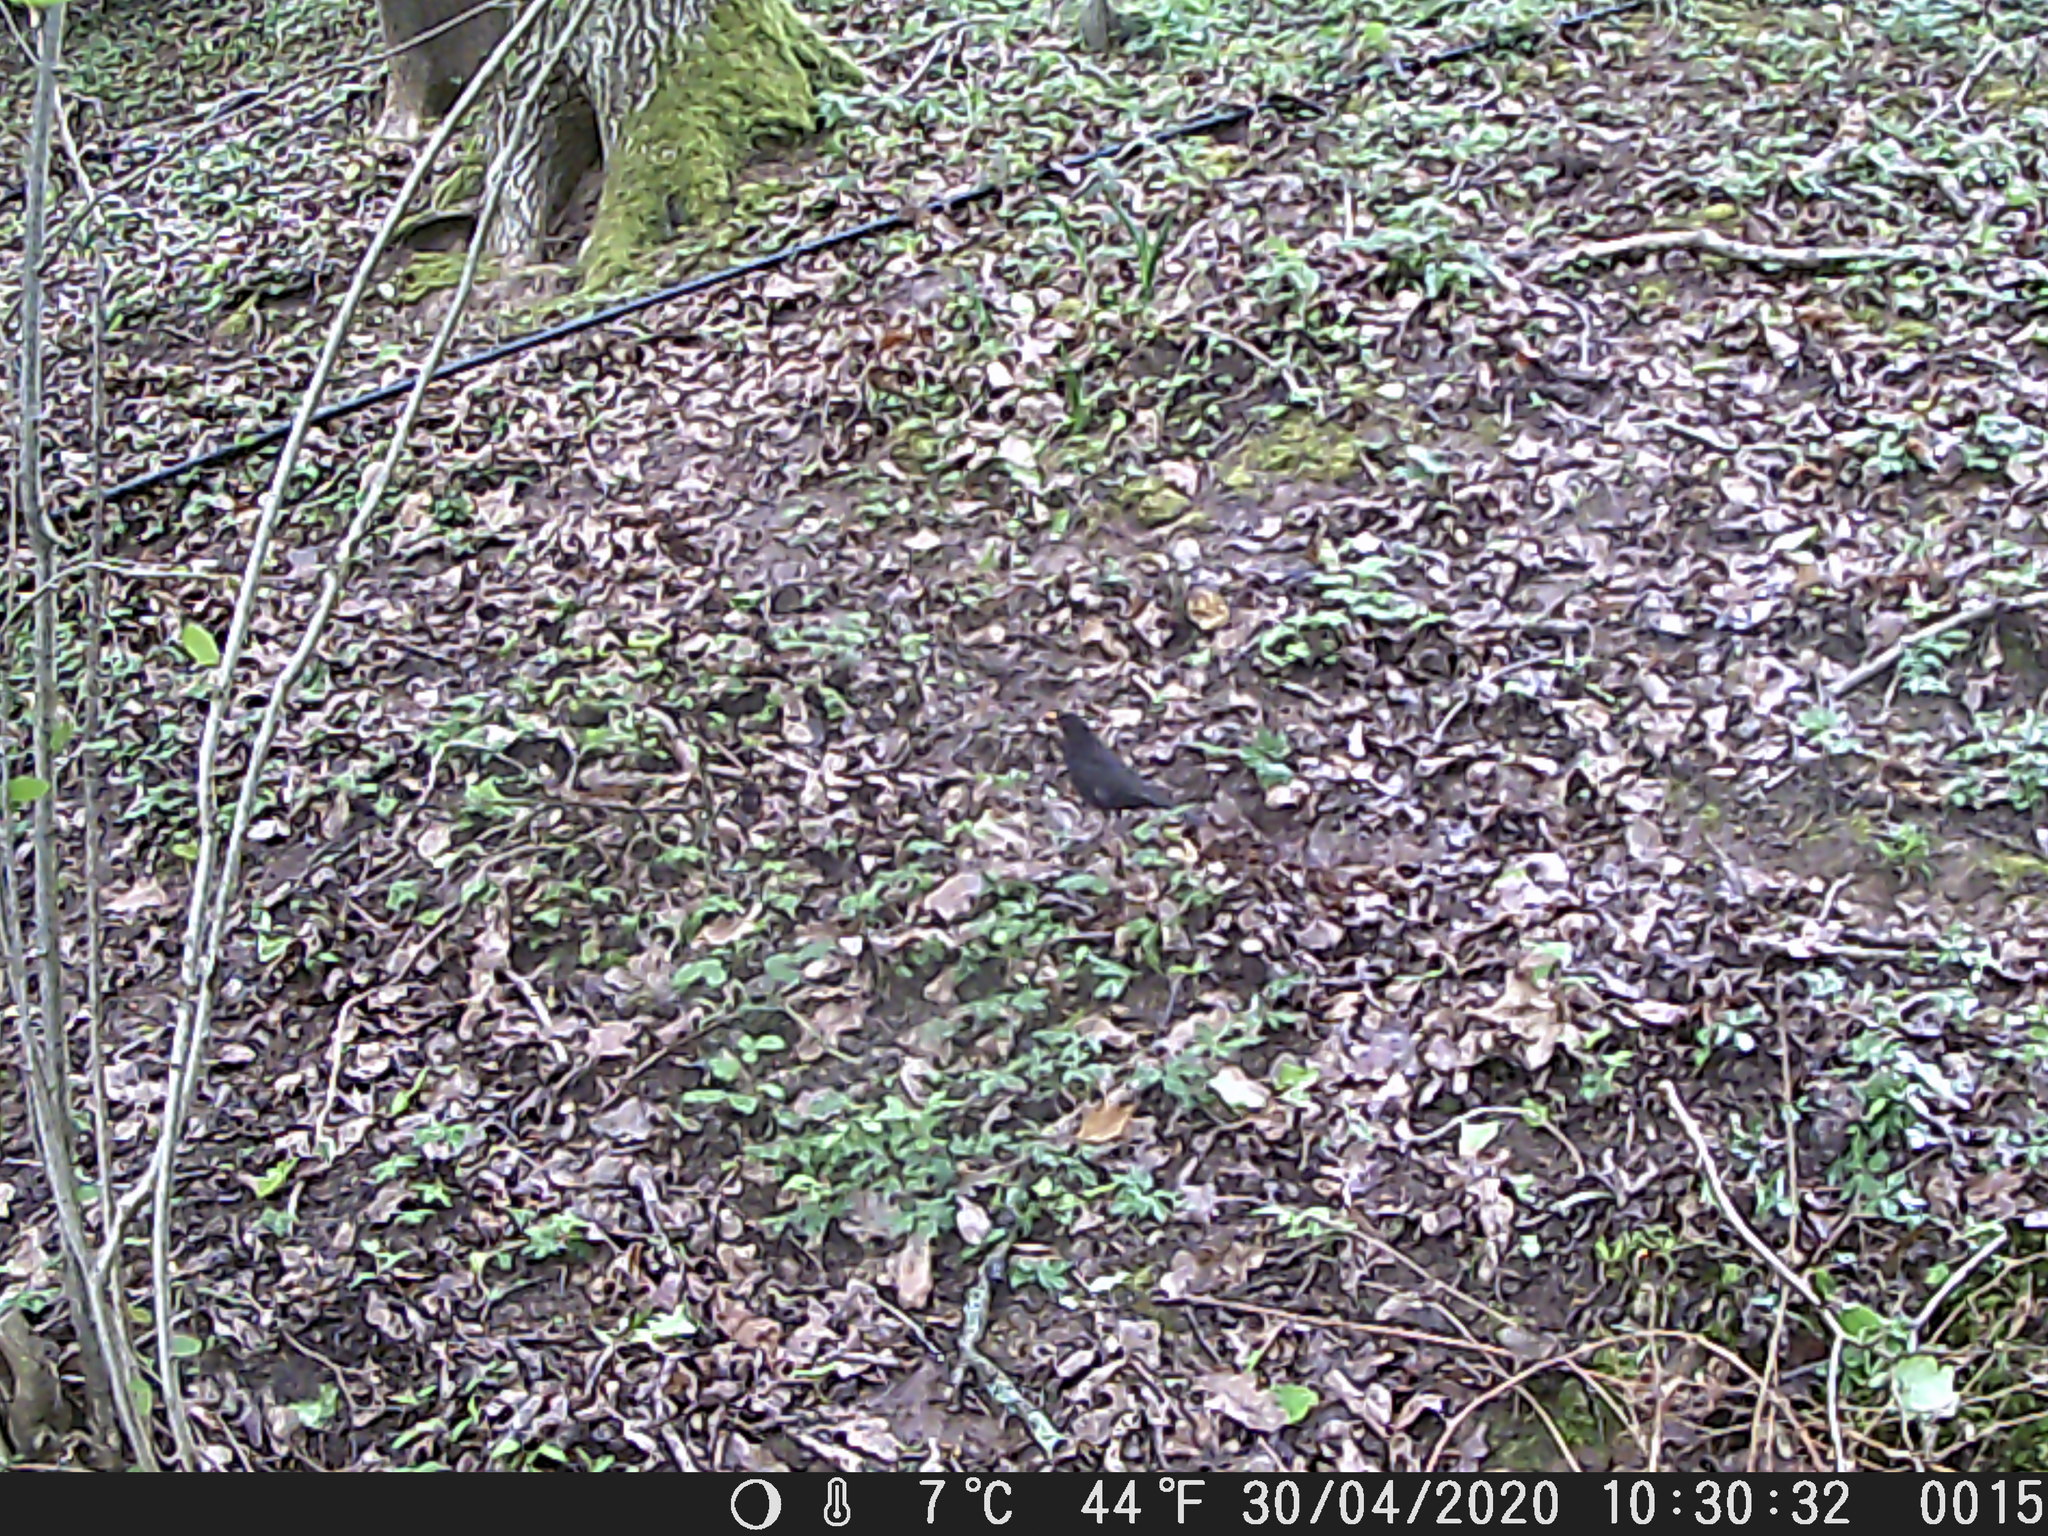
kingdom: Animalia
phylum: Chordata
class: Aves
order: Passeriformes
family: Turdidae
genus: Turdus
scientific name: Turdus merula
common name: Common blackbird
